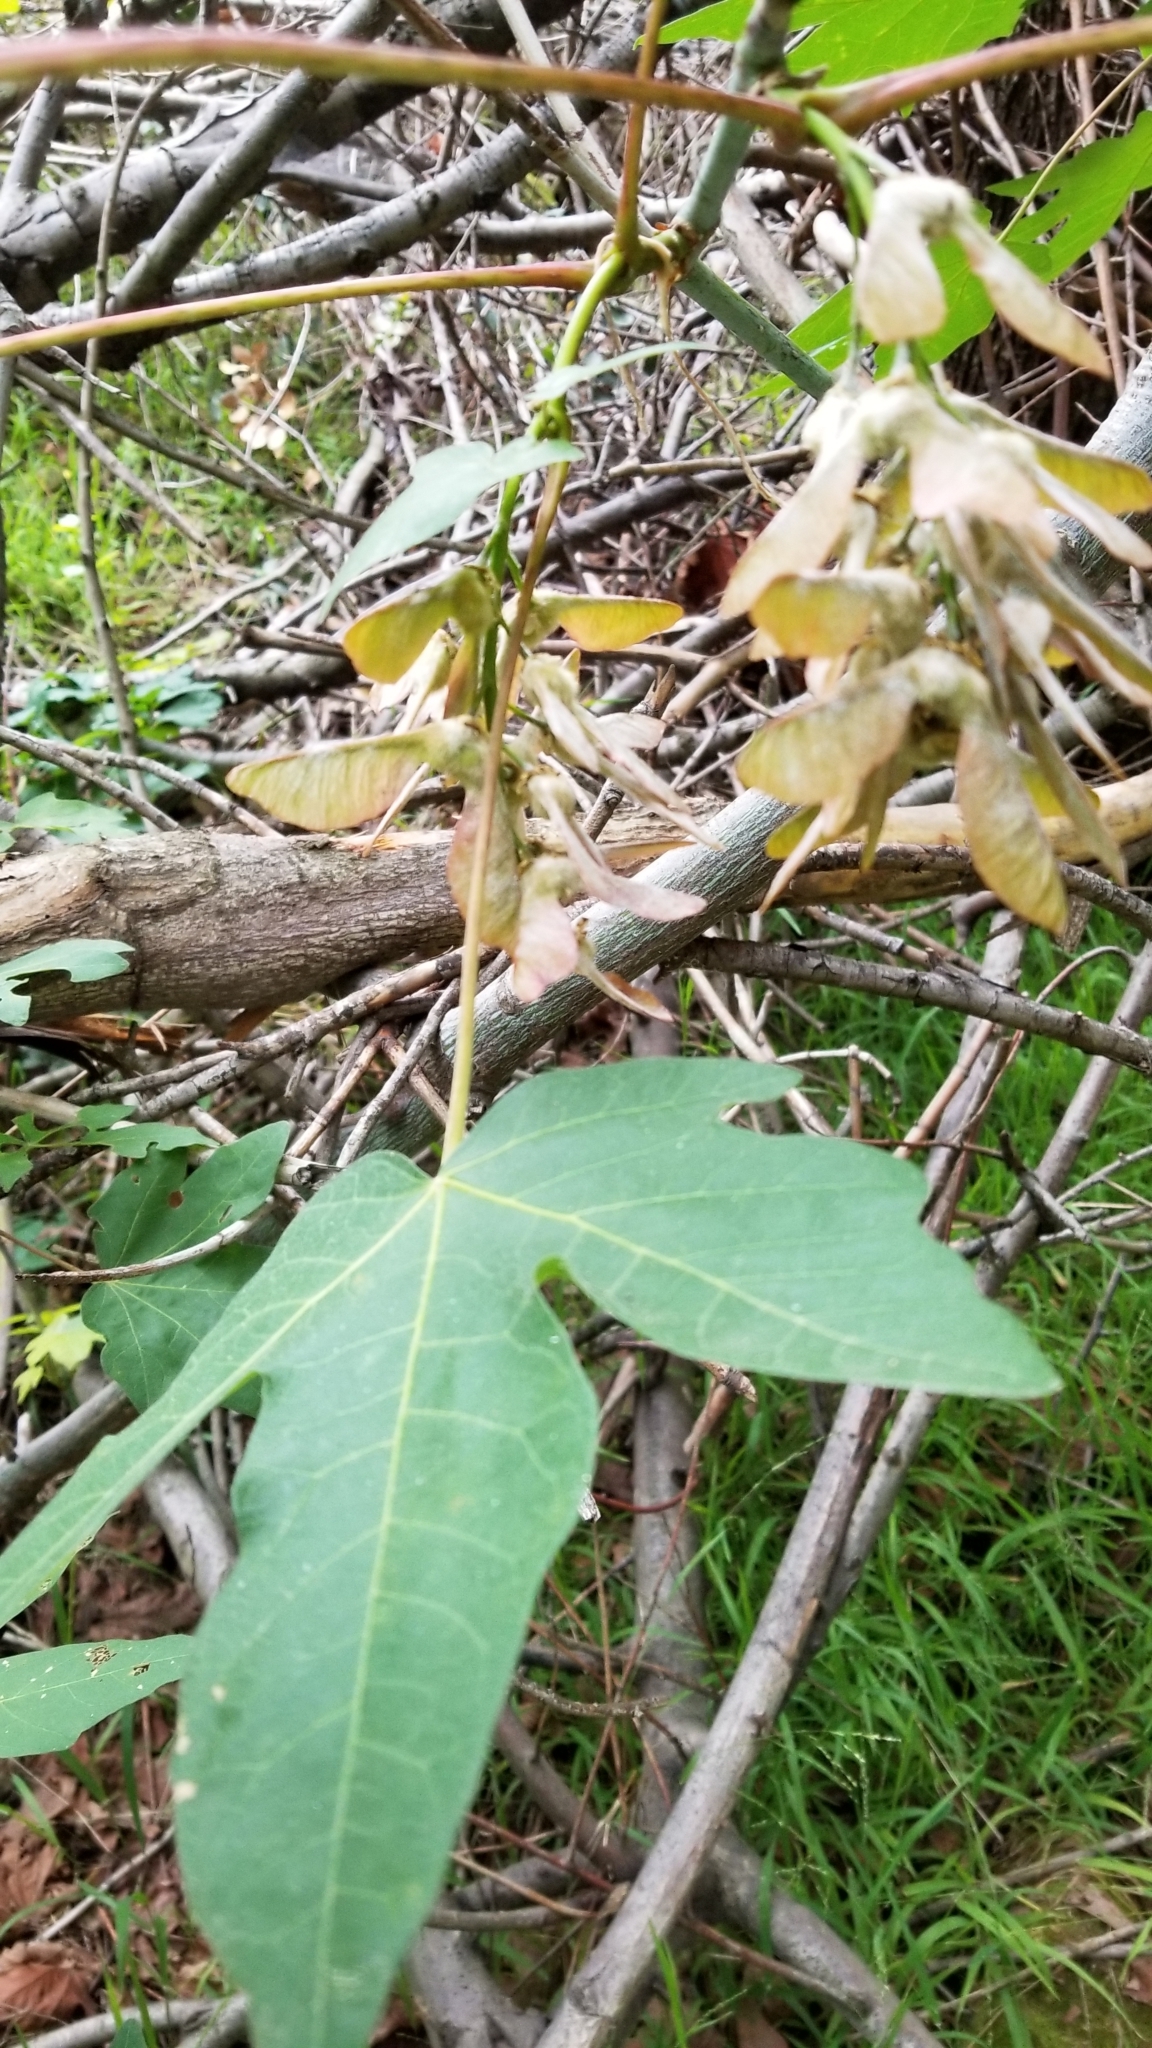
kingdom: Plantae
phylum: Tracheophyta
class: Magnoliopsida
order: Sapindales
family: Sapindaceae
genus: Acer
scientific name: Acer macrophyllum
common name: Oregon maple
